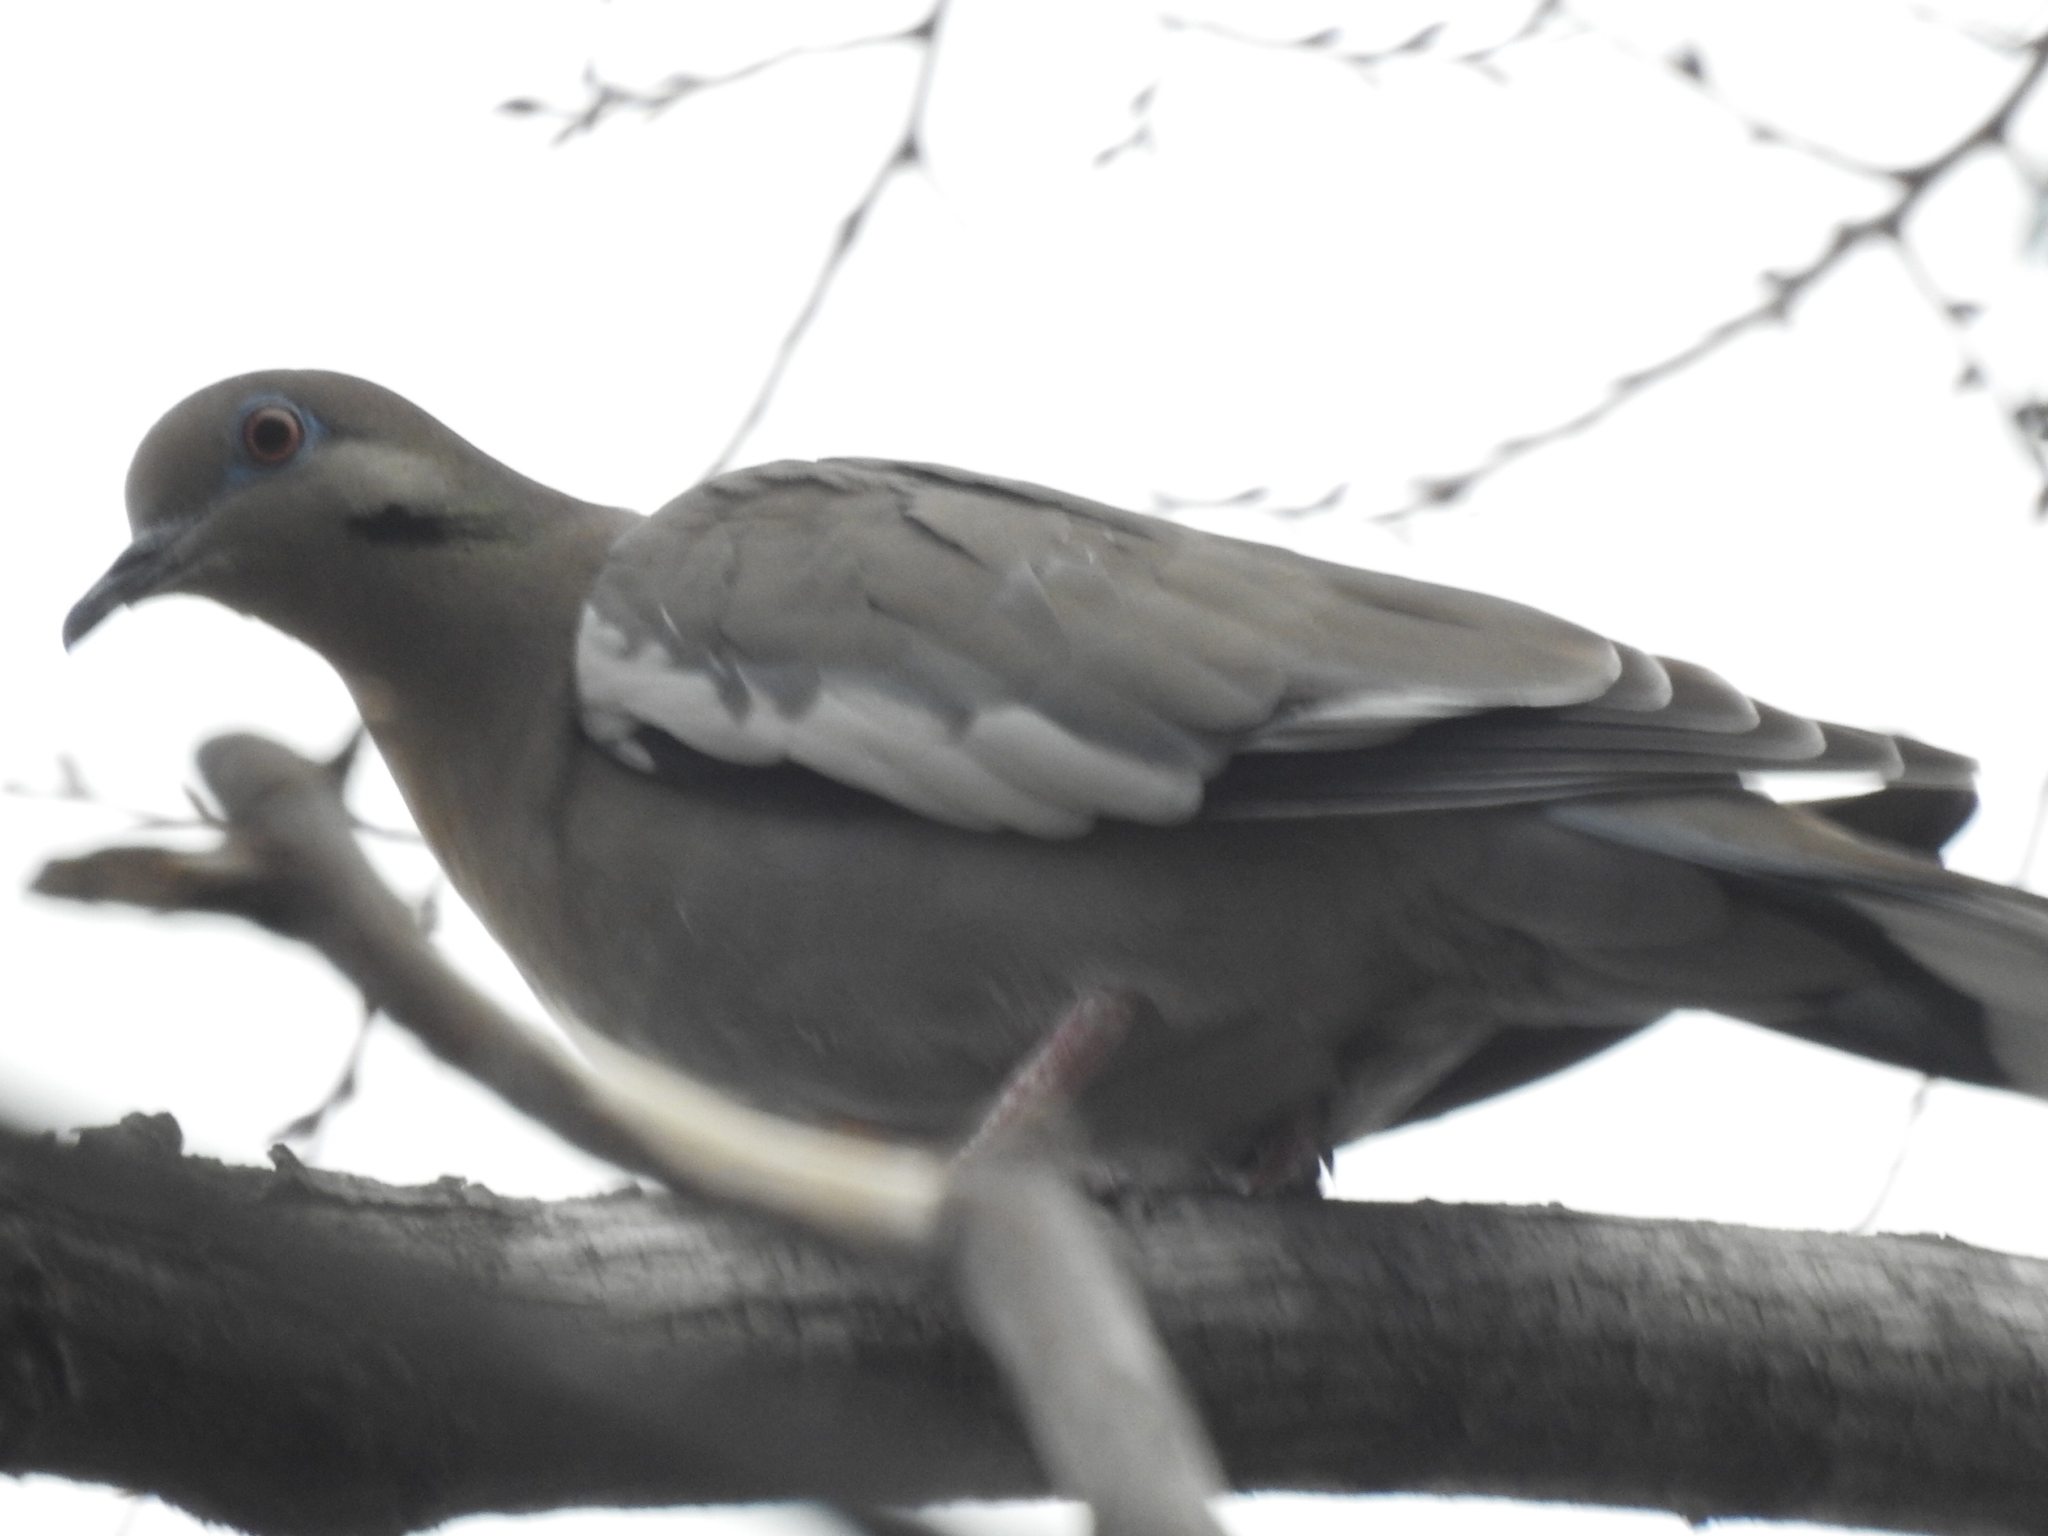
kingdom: Animalia
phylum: Chordata
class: Aves
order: Columbiformes
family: Columbidae
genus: Zenaida
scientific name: Zenaida asiatica
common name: White-winged dove
